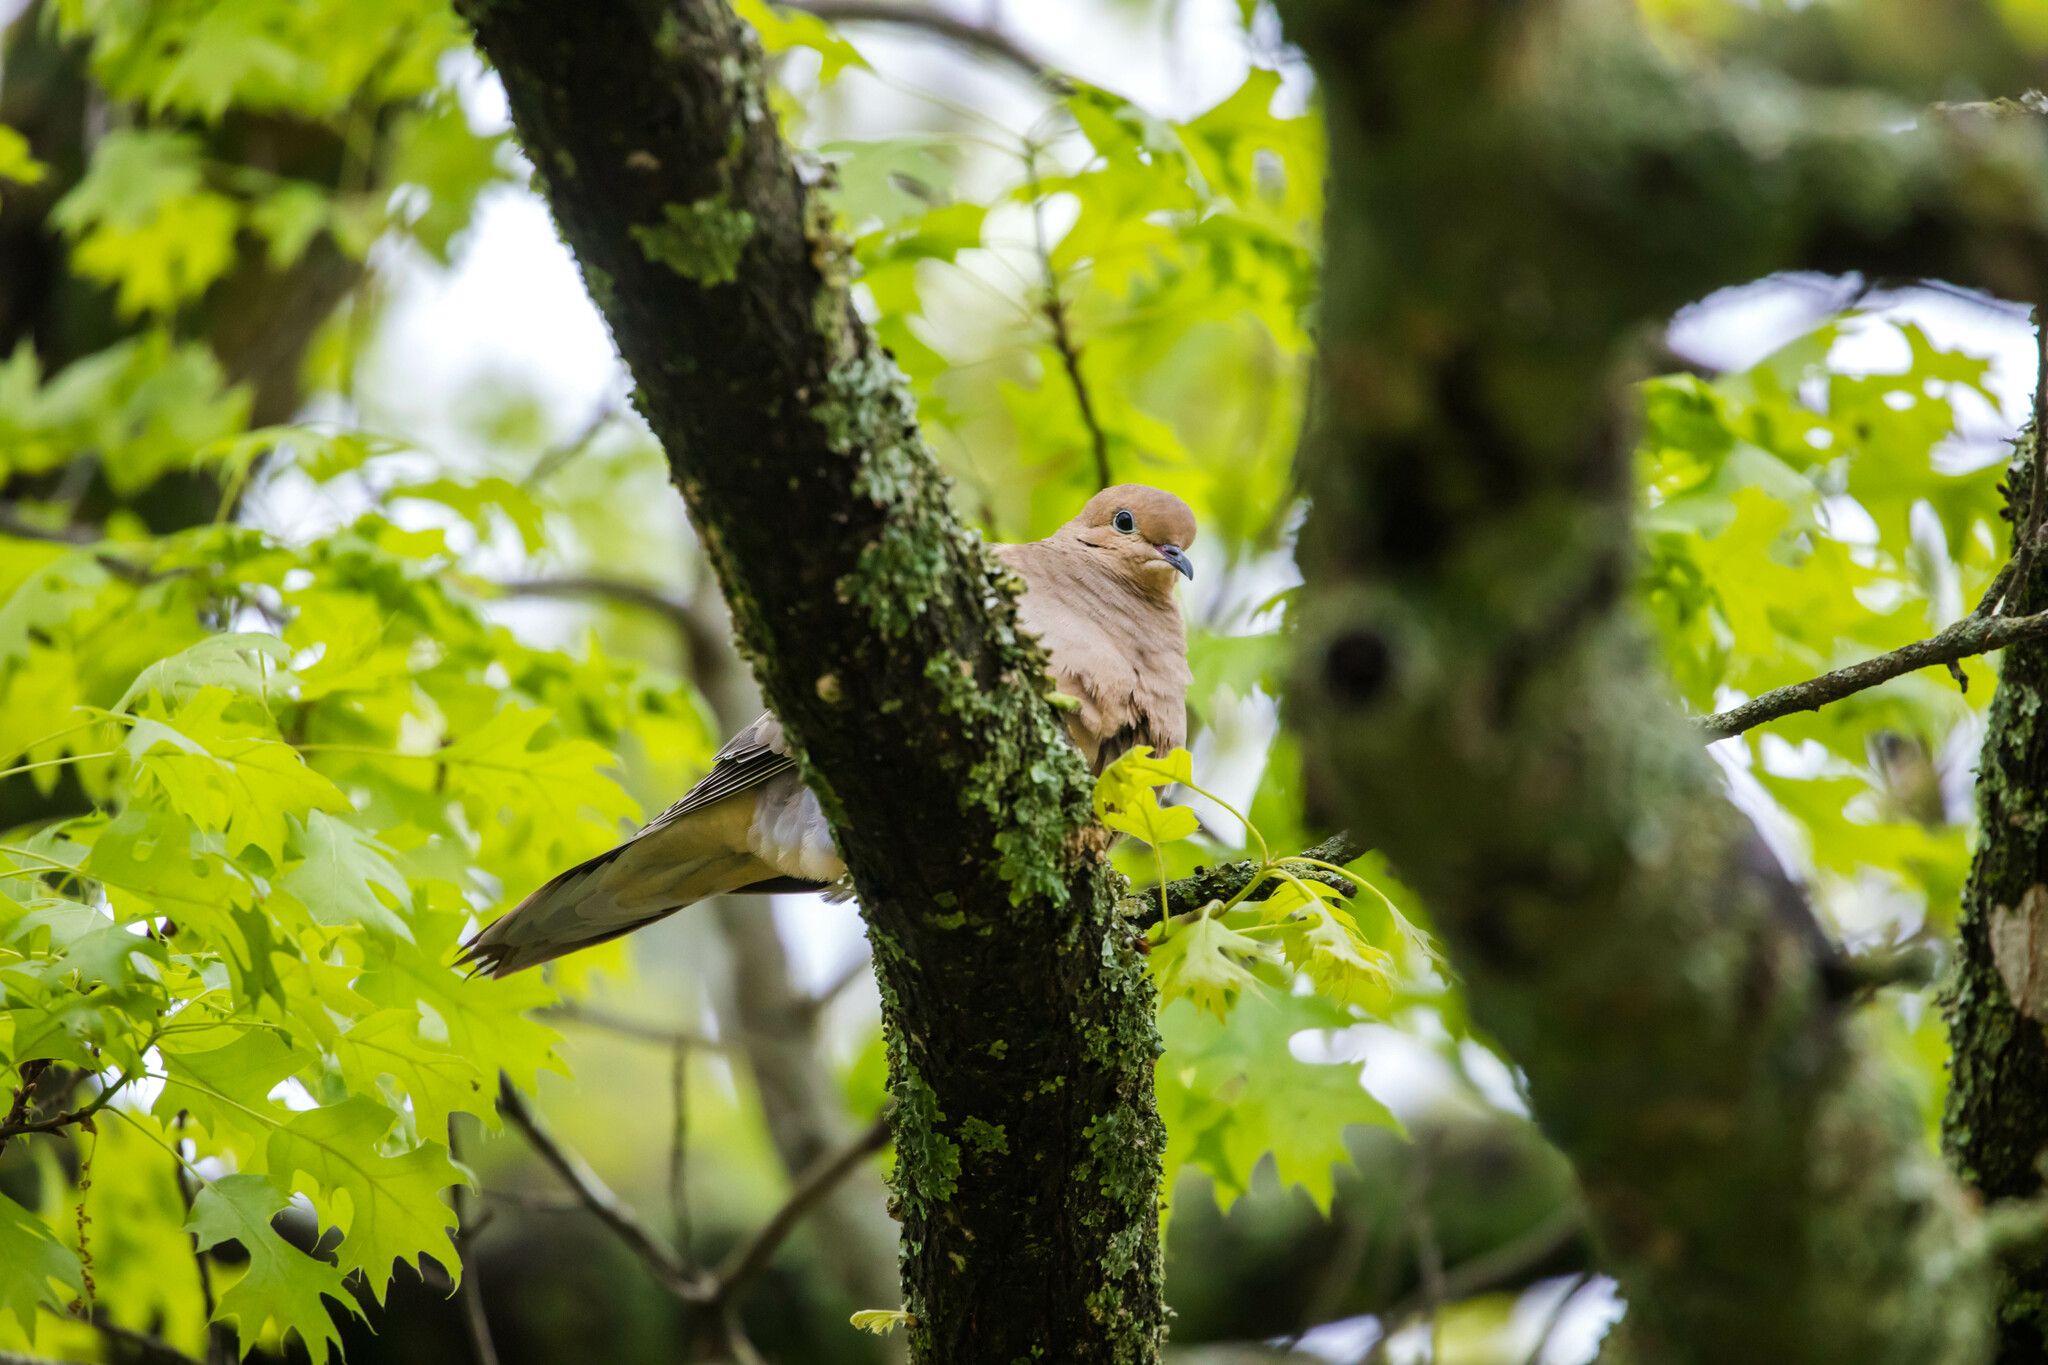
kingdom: Animalia
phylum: Chordata
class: Aves
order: Columbiformes
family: Columbidae
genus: Zenaida
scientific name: Zenaida macroura
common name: Mourning dove
